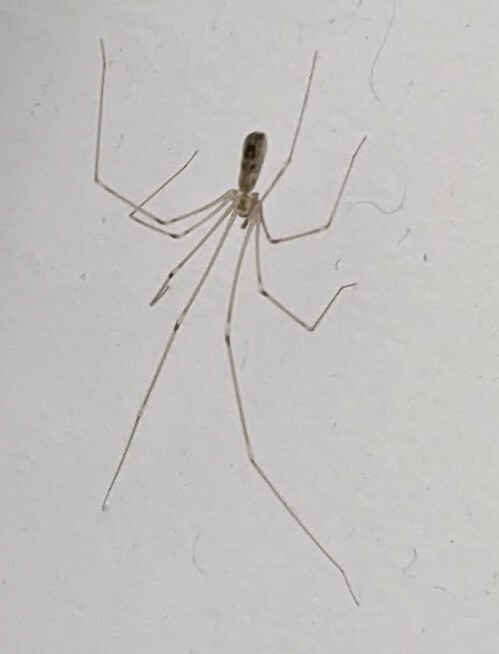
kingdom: Animalia
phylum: Arthropoda
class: Arachnida
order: Araneae
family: Pholcidae
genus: Pholcus
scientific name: Pholcus phalangioides
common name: Longbodied cellar spider
